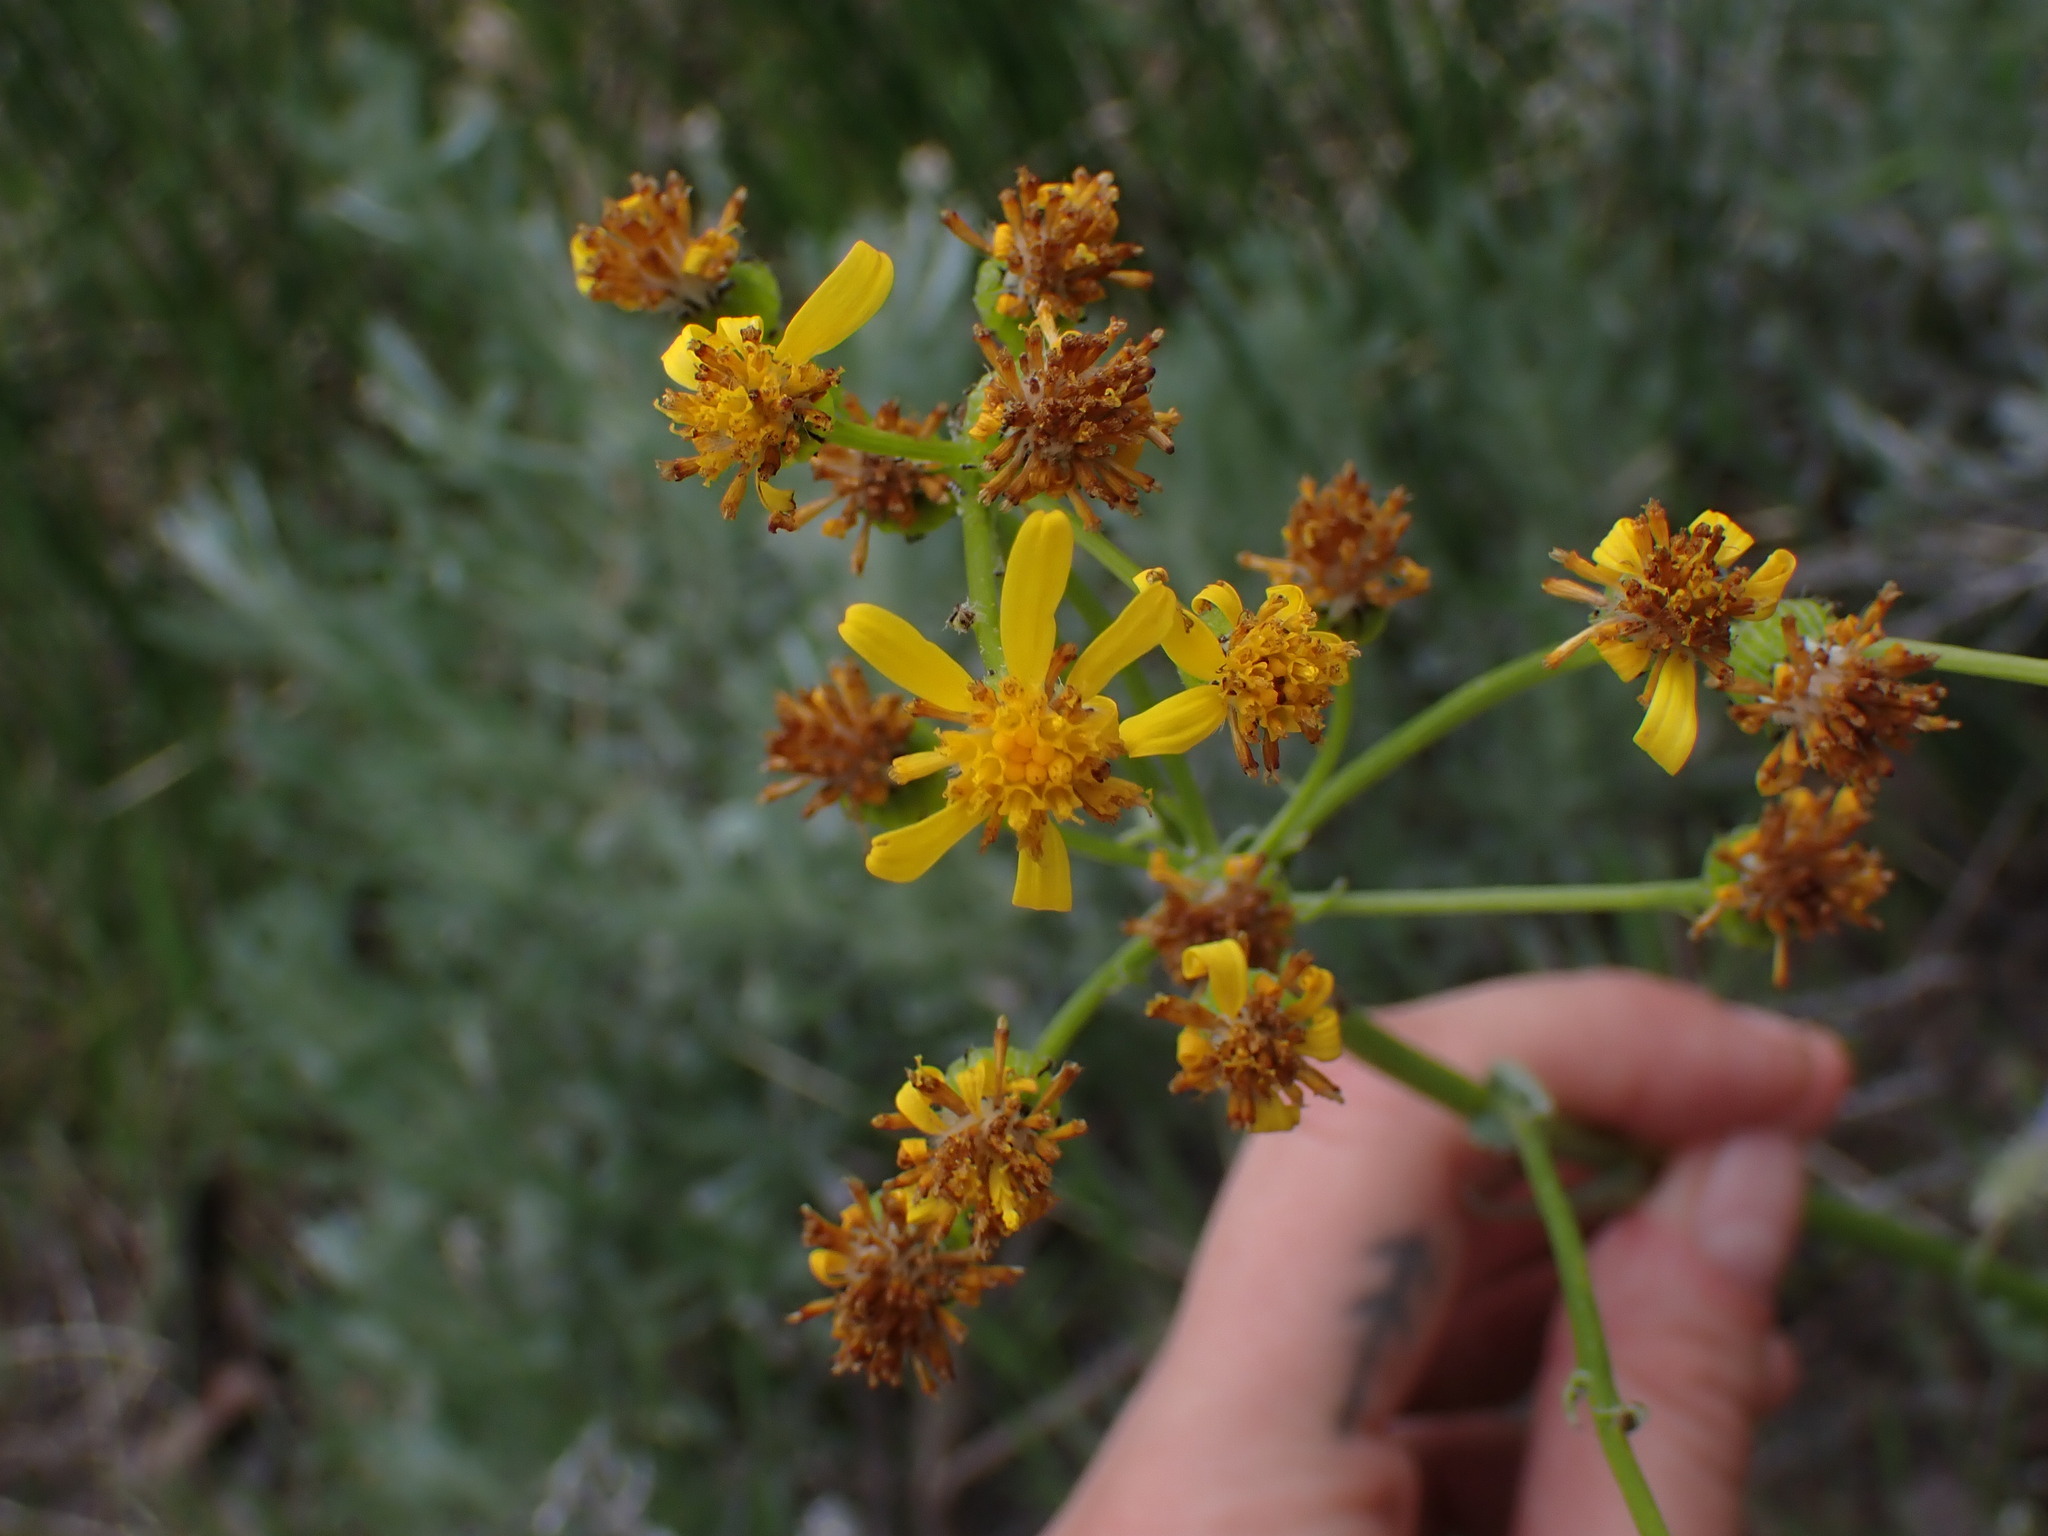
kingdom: Plantae
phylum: Tracheophyta
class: Magnoliopsida
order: Asterales
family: Asteraceae
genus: Senecio
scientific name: Senecio integerrimus
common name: Gaugeplant
